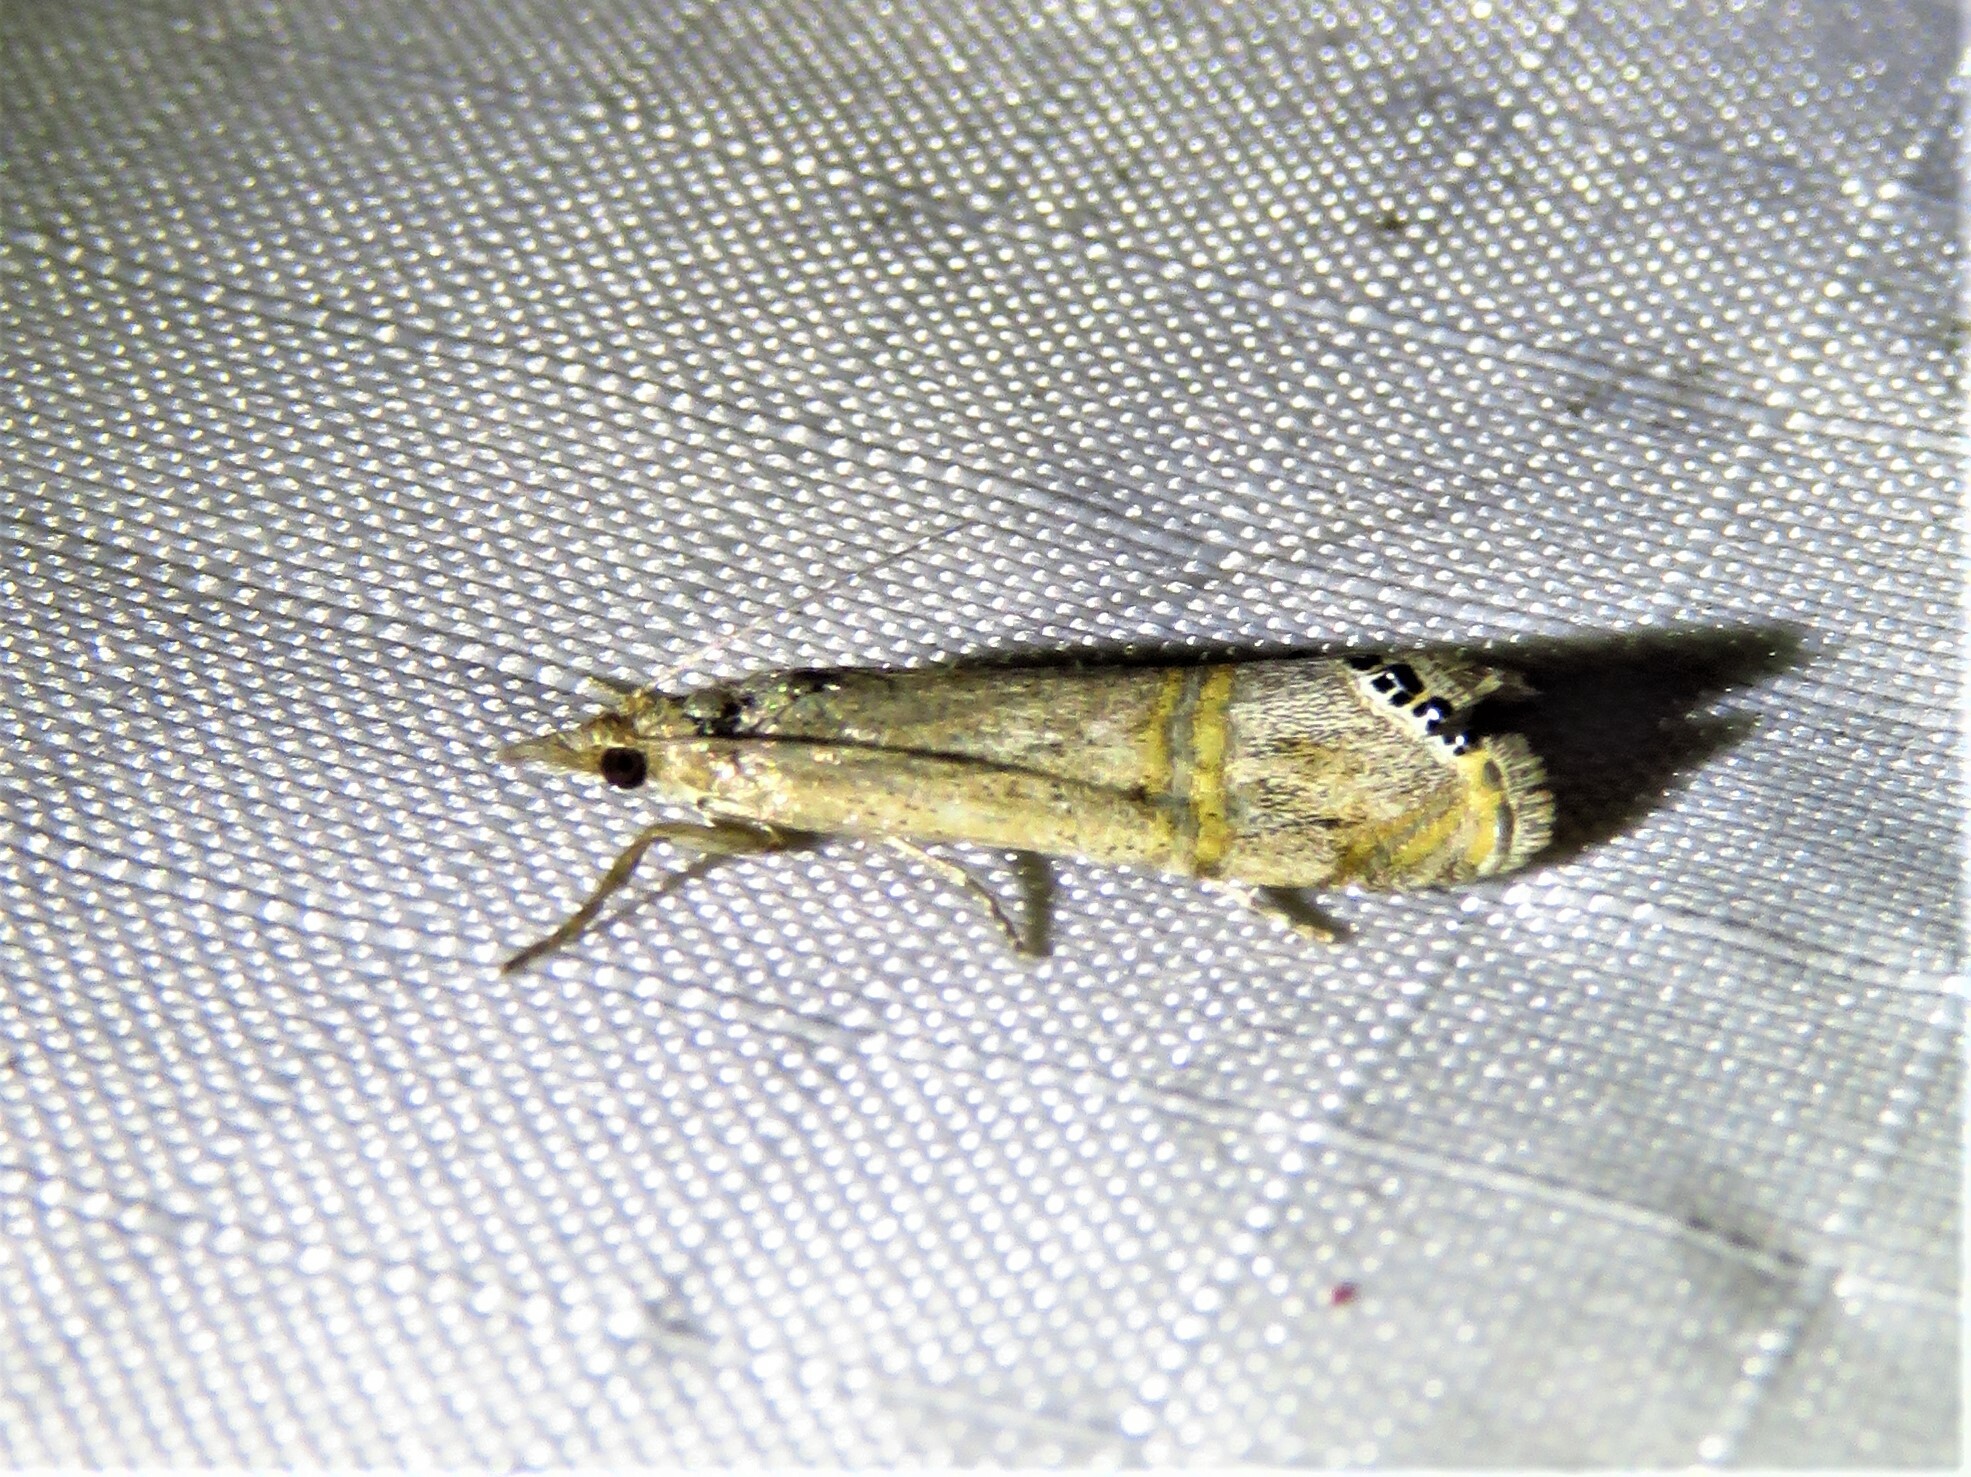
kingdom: Animalia
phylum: Arthropoda
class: Insecta
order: Lepidoptera
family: Crambidae
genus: Euchromius
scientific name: Euchromius ocellea
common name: Necklace veneer moth
